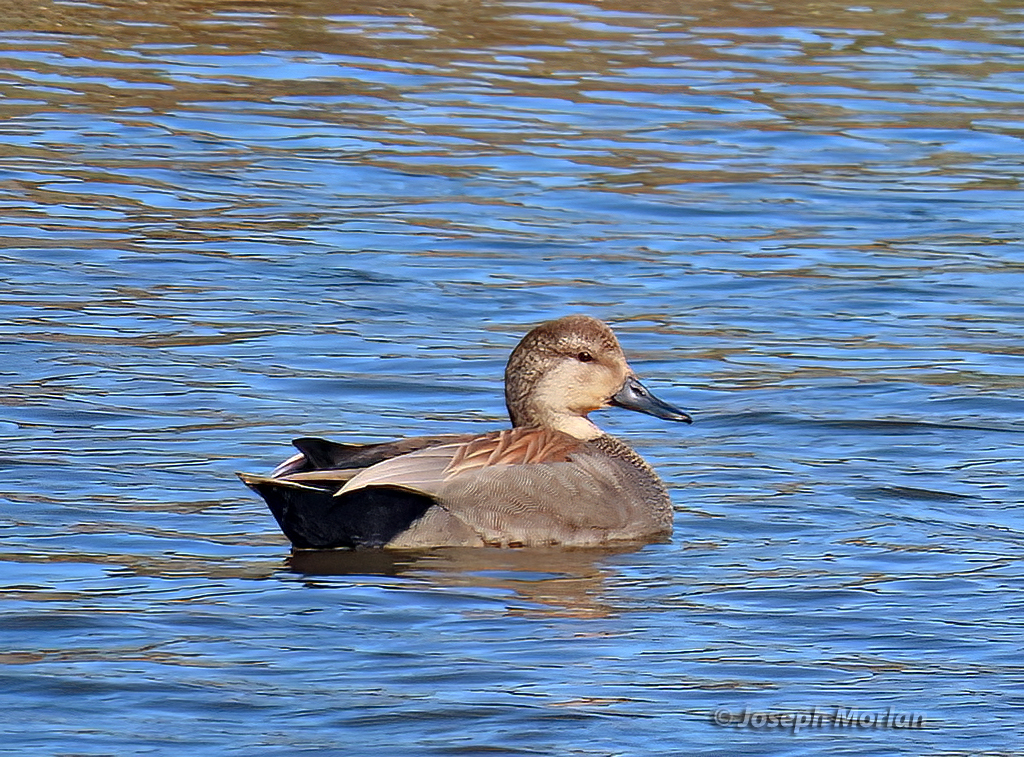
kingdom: Animalia
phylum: Chordata
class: Aves
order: Anseriformes
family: Anatidae
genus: Mareca
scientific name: Mareca strepera
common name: Gadwall
